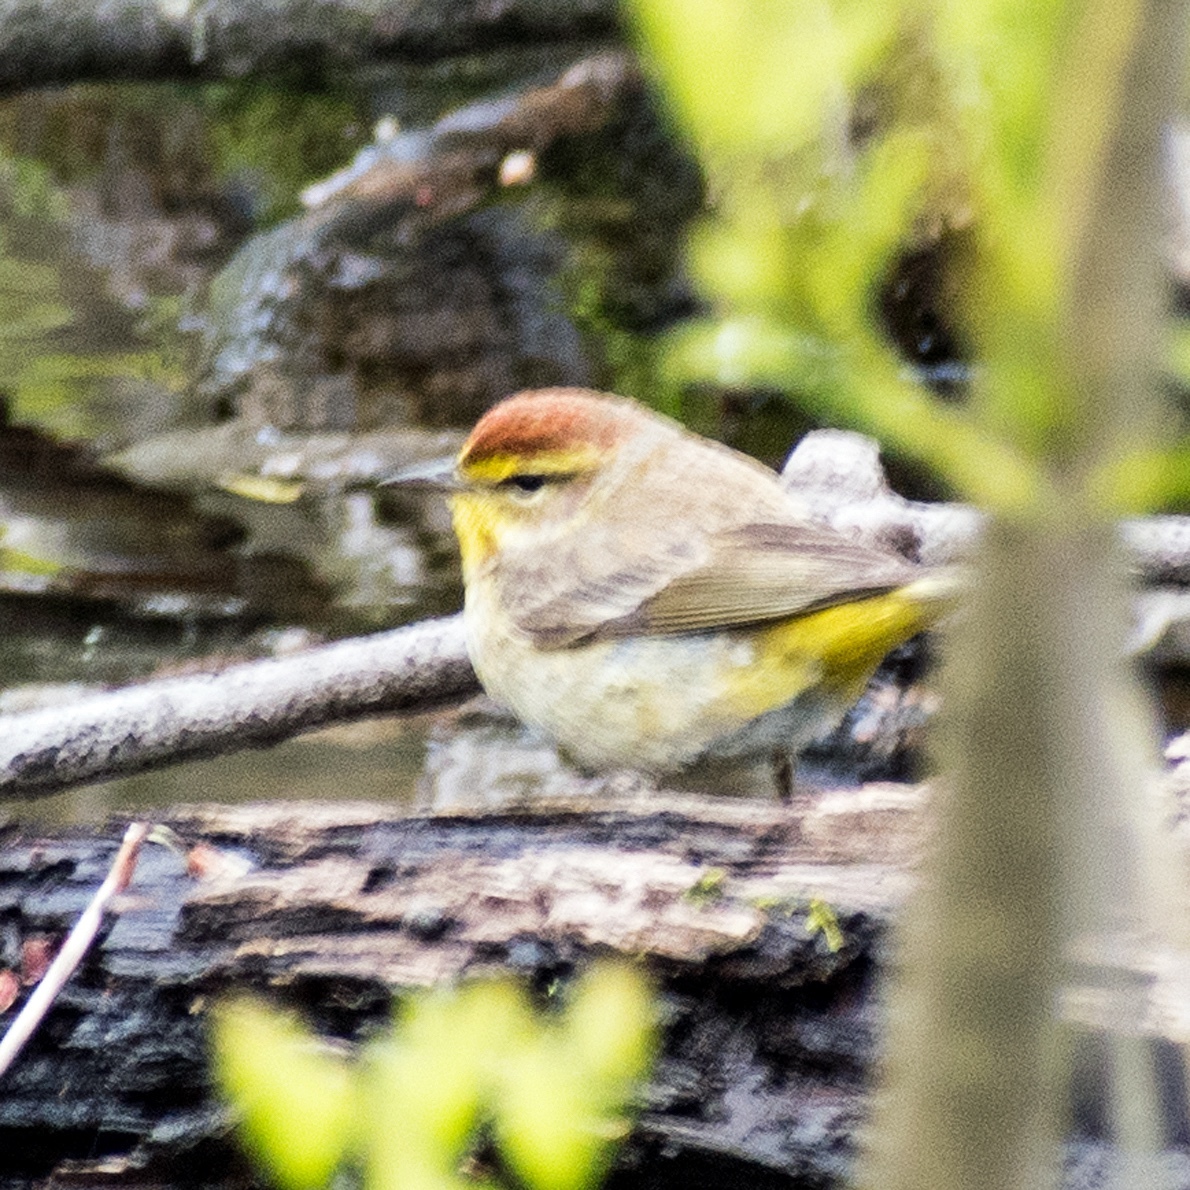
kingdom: Animalia
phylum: Chordata
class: Aves
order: Passeriformes
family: Parulidae
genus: Setophaga
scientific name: Setophaga palmarum
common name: Palm warbler
